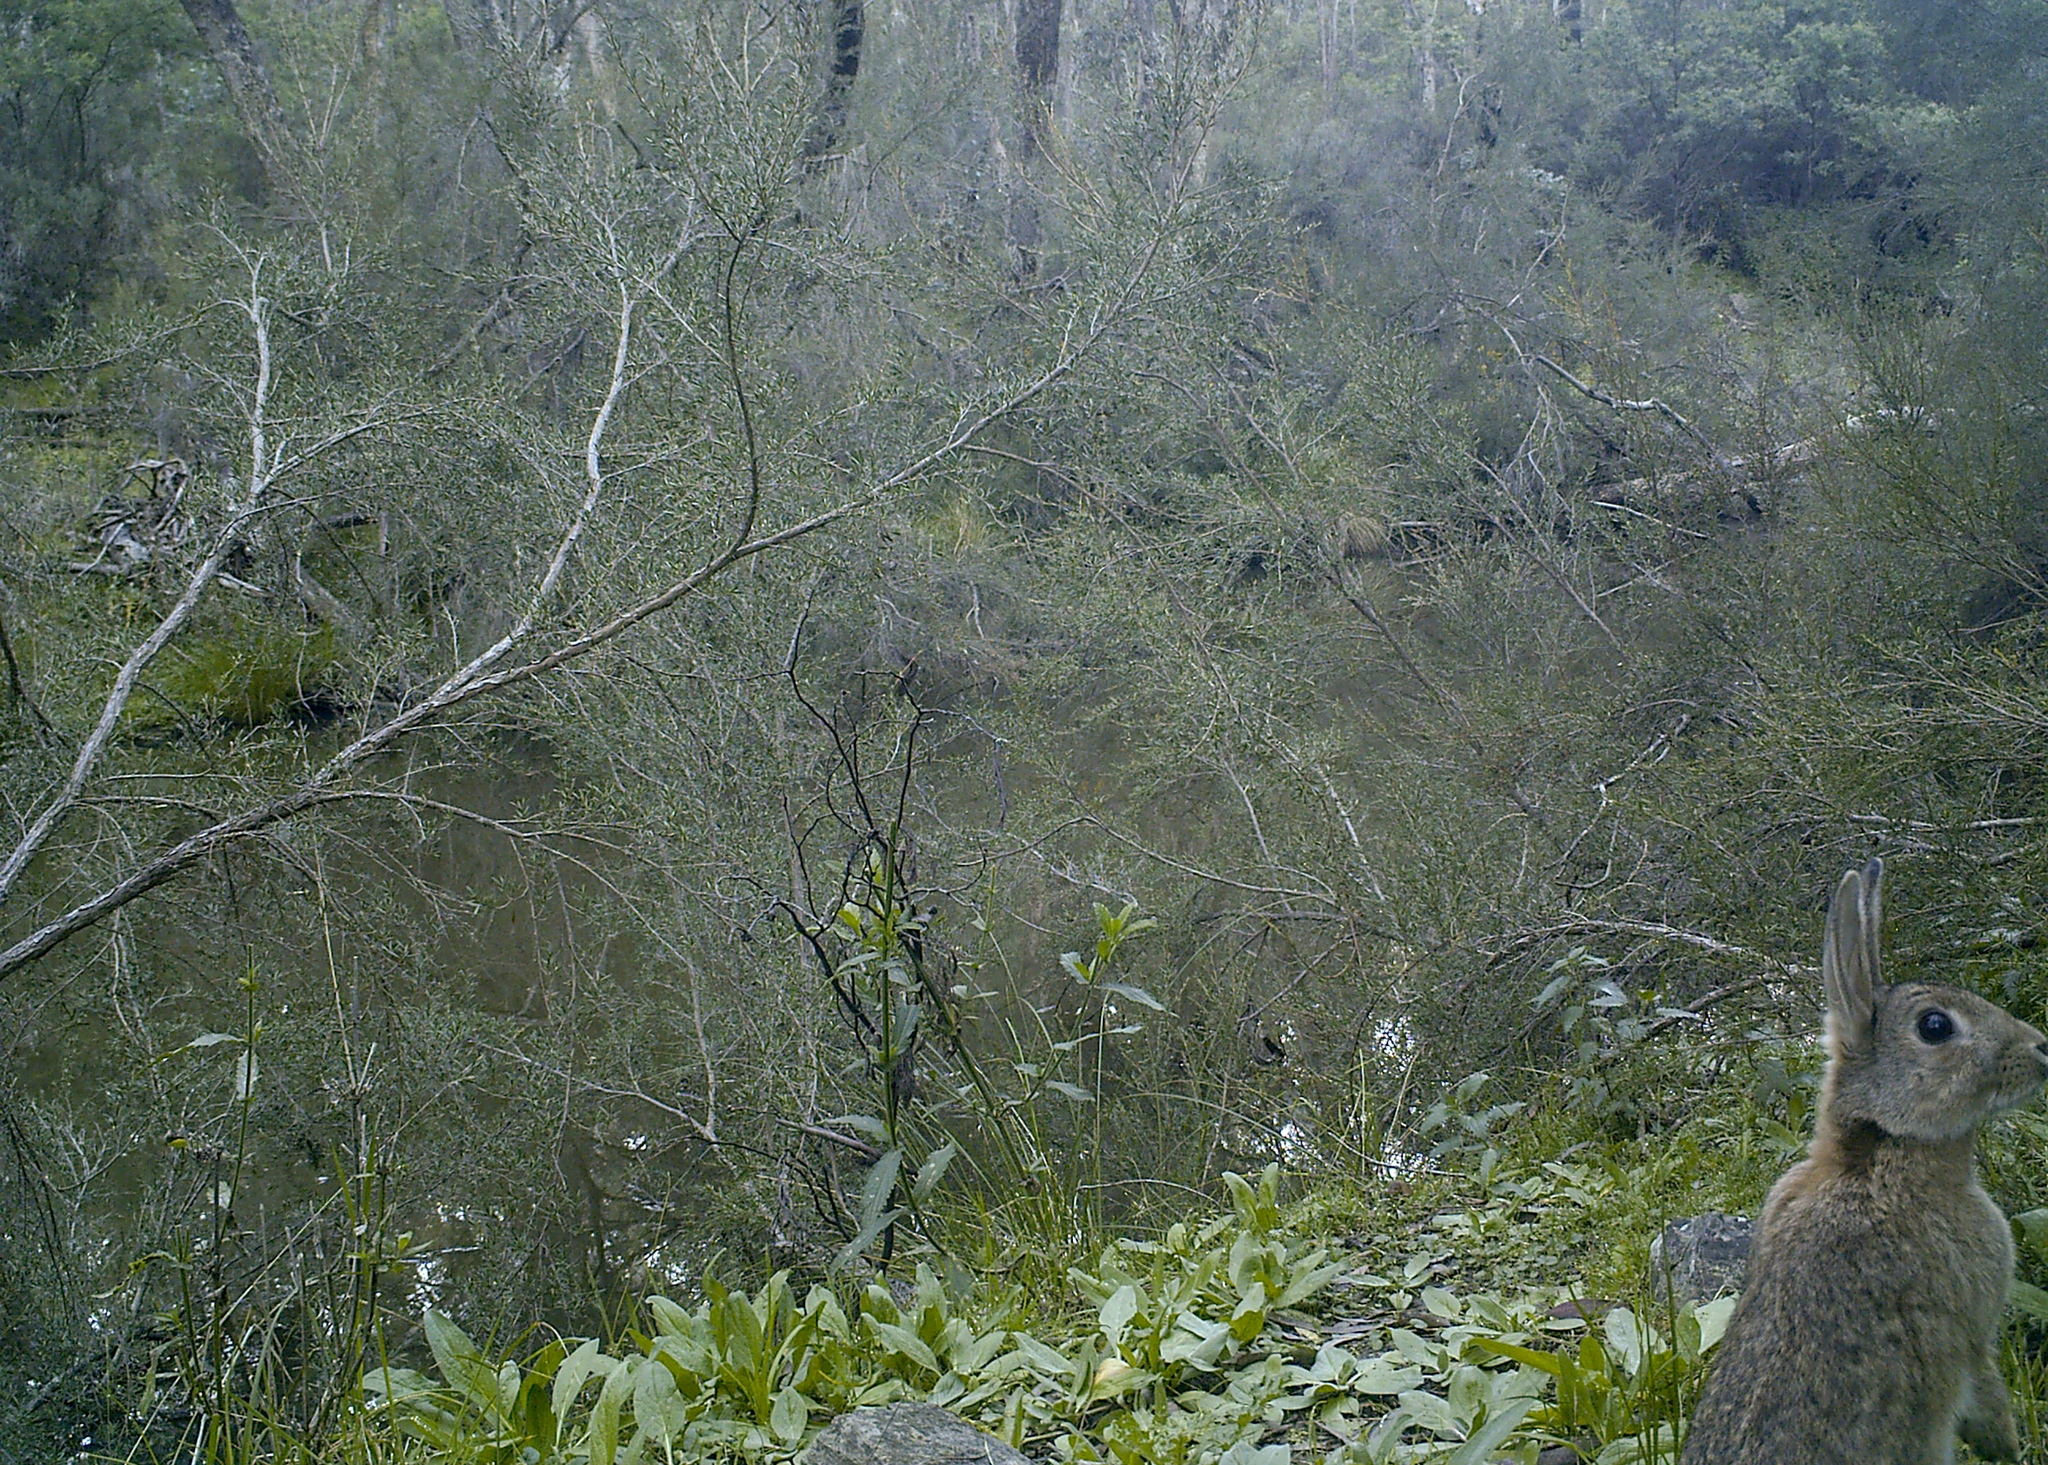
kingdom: Animalia
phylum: Chordata
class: Mammalia
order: Lagomorpha
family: Leporidae
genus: Oryctolagus
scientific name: Oryctolagus cuniculus
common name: European rabbit
